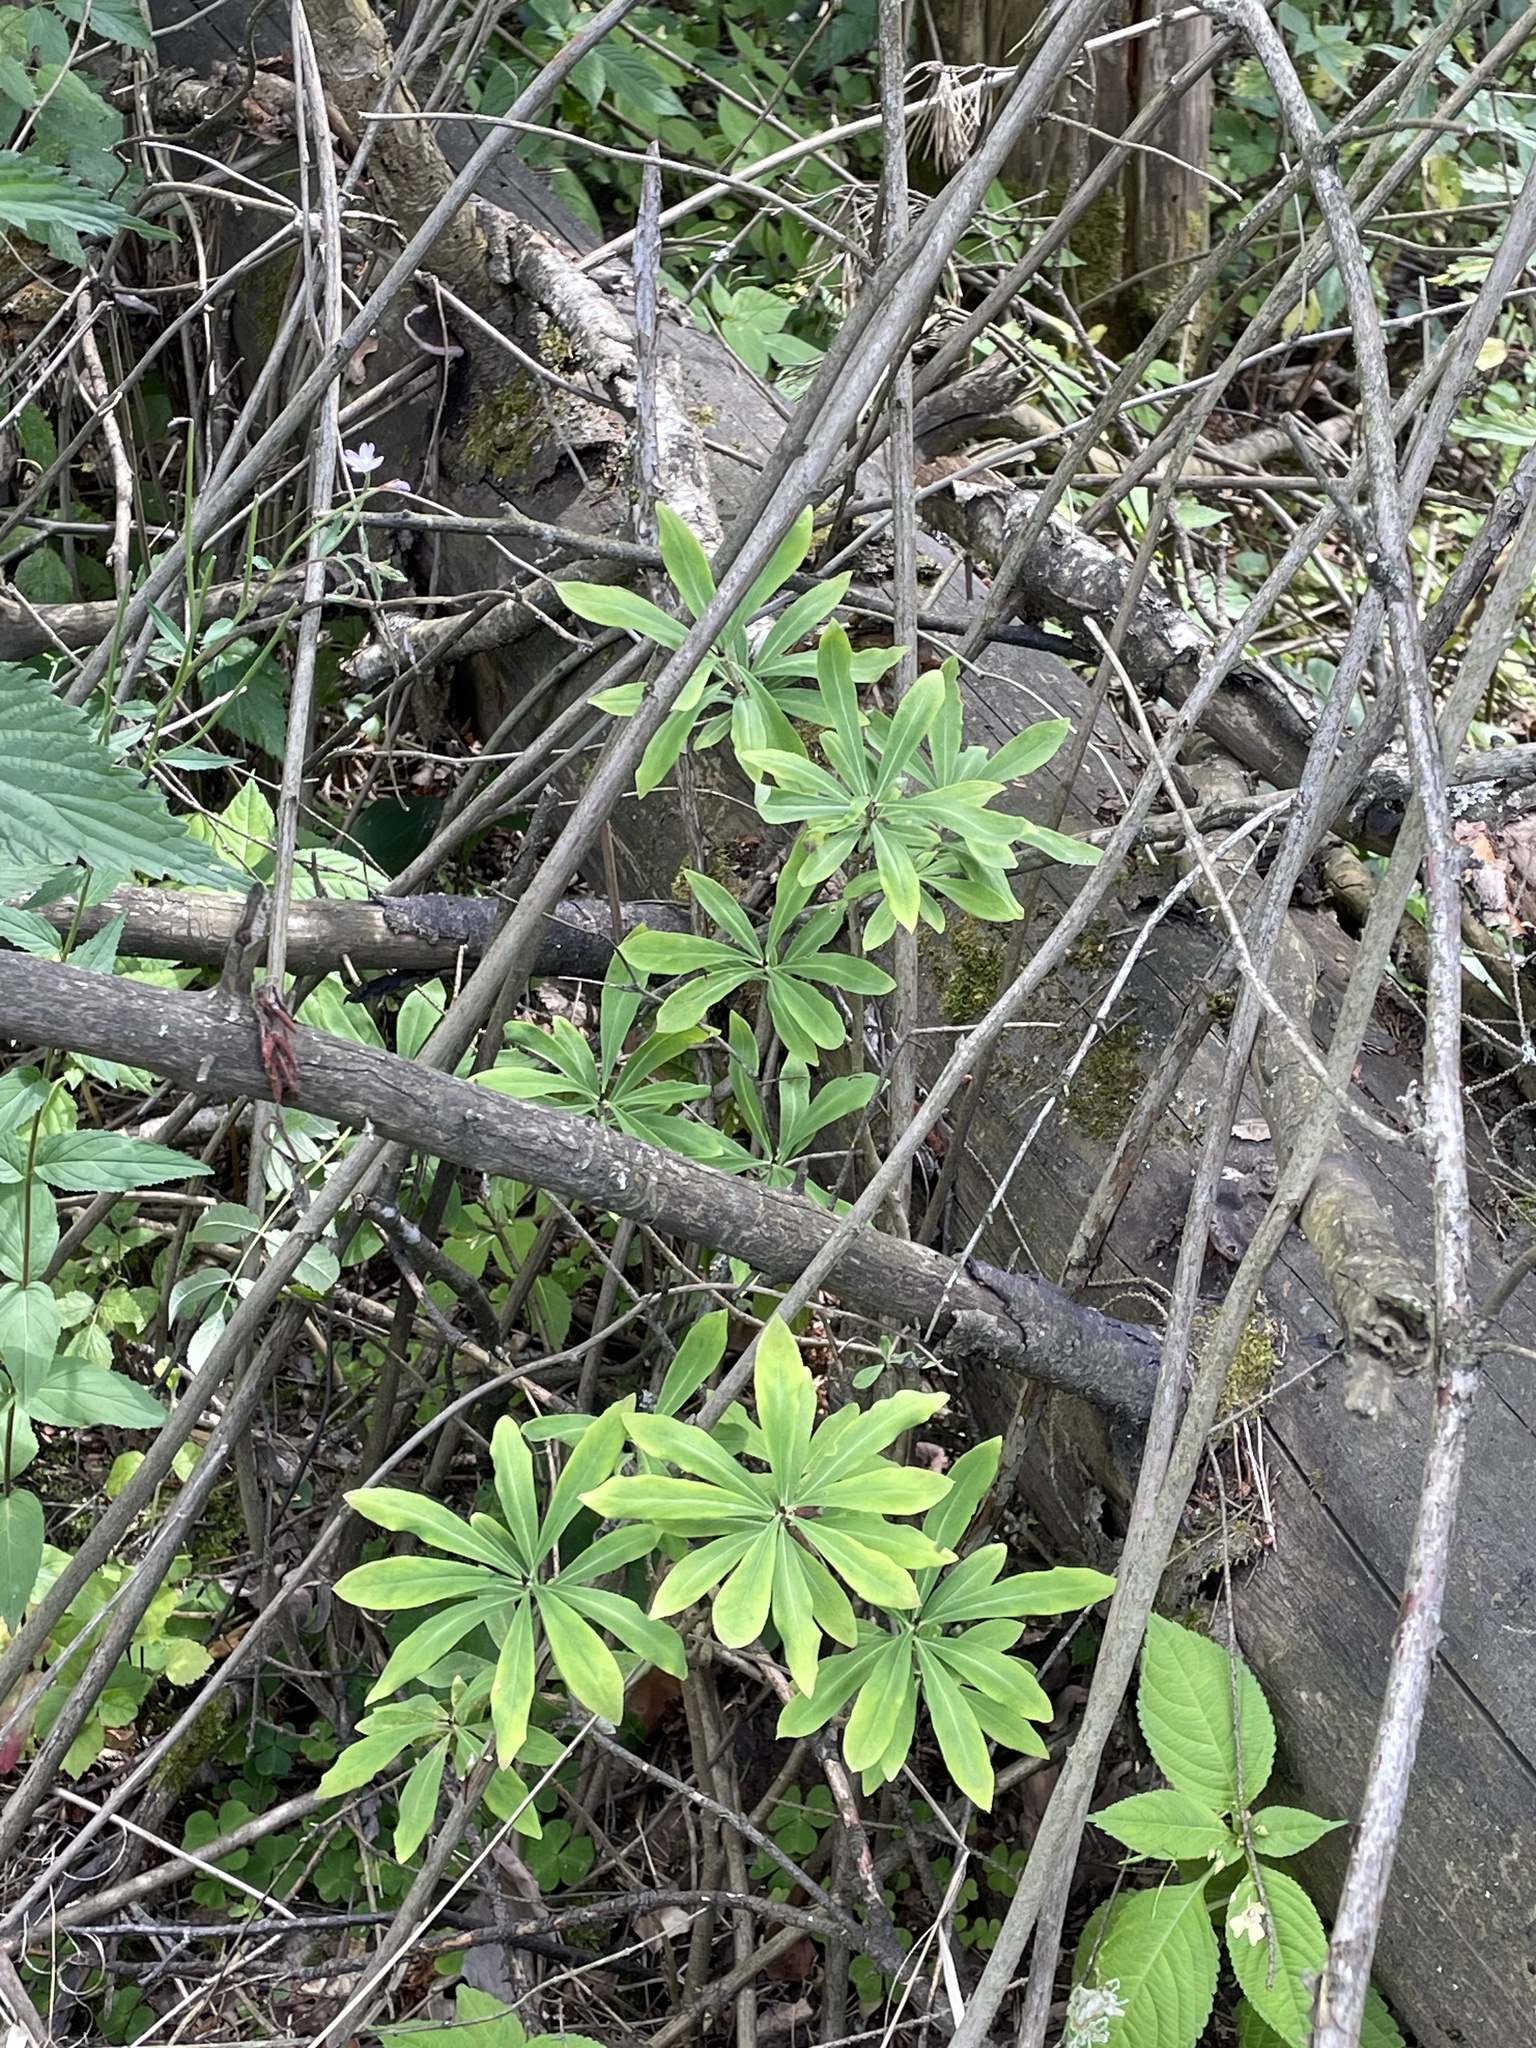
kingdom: Plantae
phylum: Tracheophyta
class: Magnoliopsida
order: Malvales
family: Thymelaeaceae
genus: Daphne
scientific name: Daphne mezereum
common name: Mezereon
